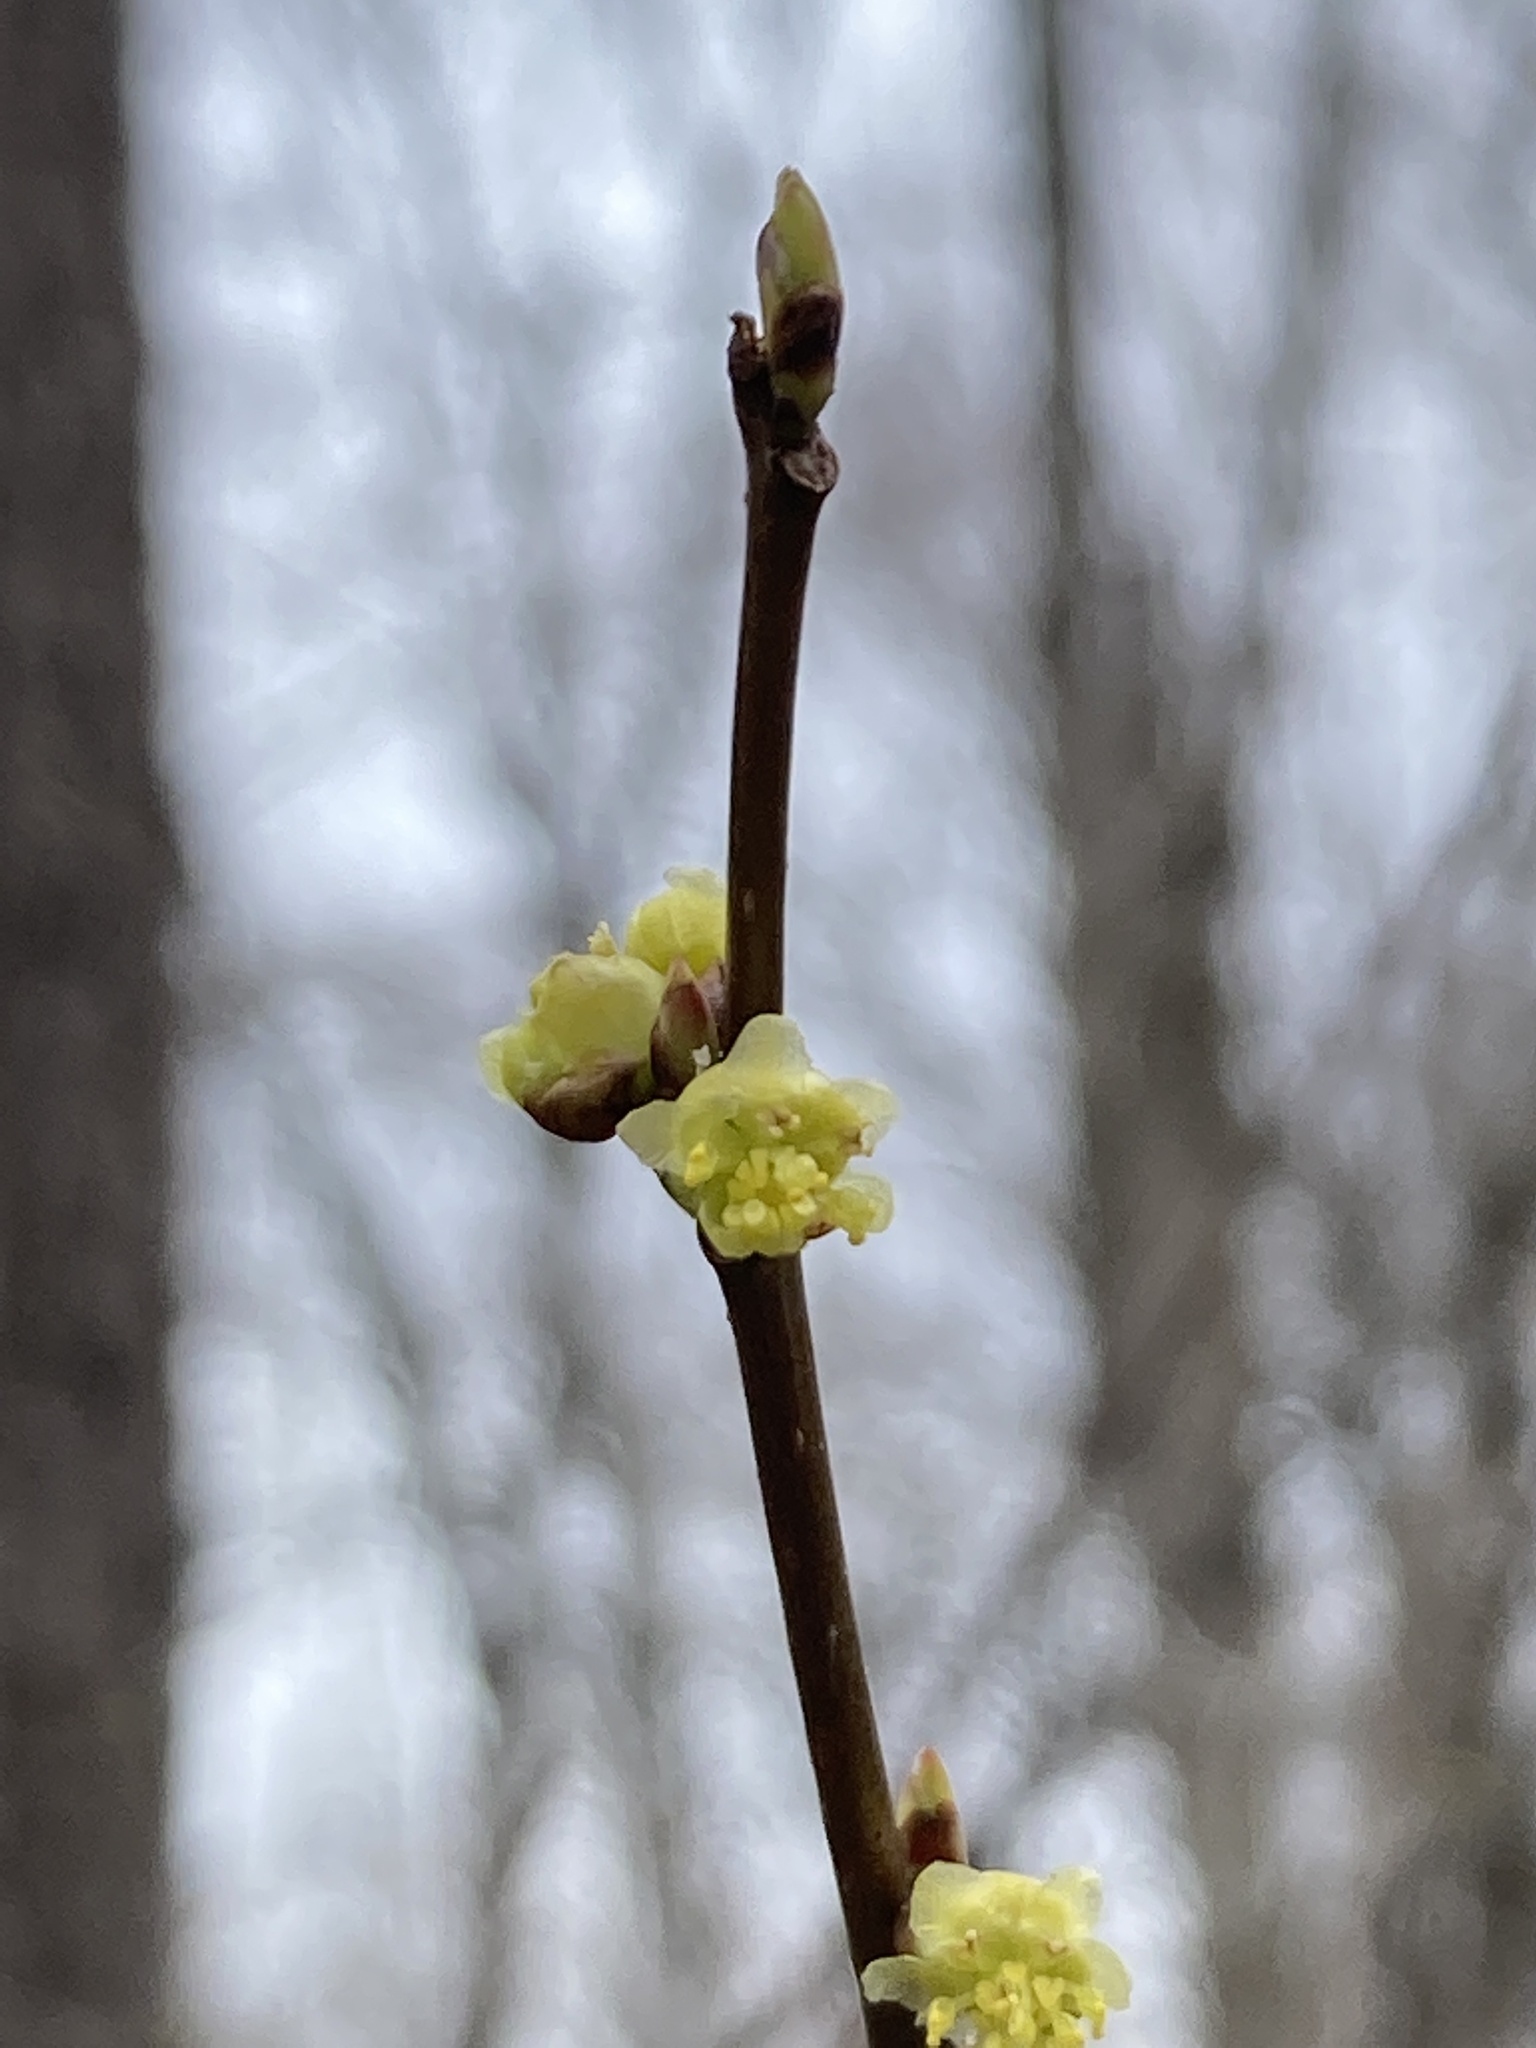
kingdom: Plantae
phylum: Tracheophyta
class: Magnoliopsida
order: Laurales
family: Lauraceae
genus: Lindera
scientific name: Lindera benzoin
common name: Spicebush
